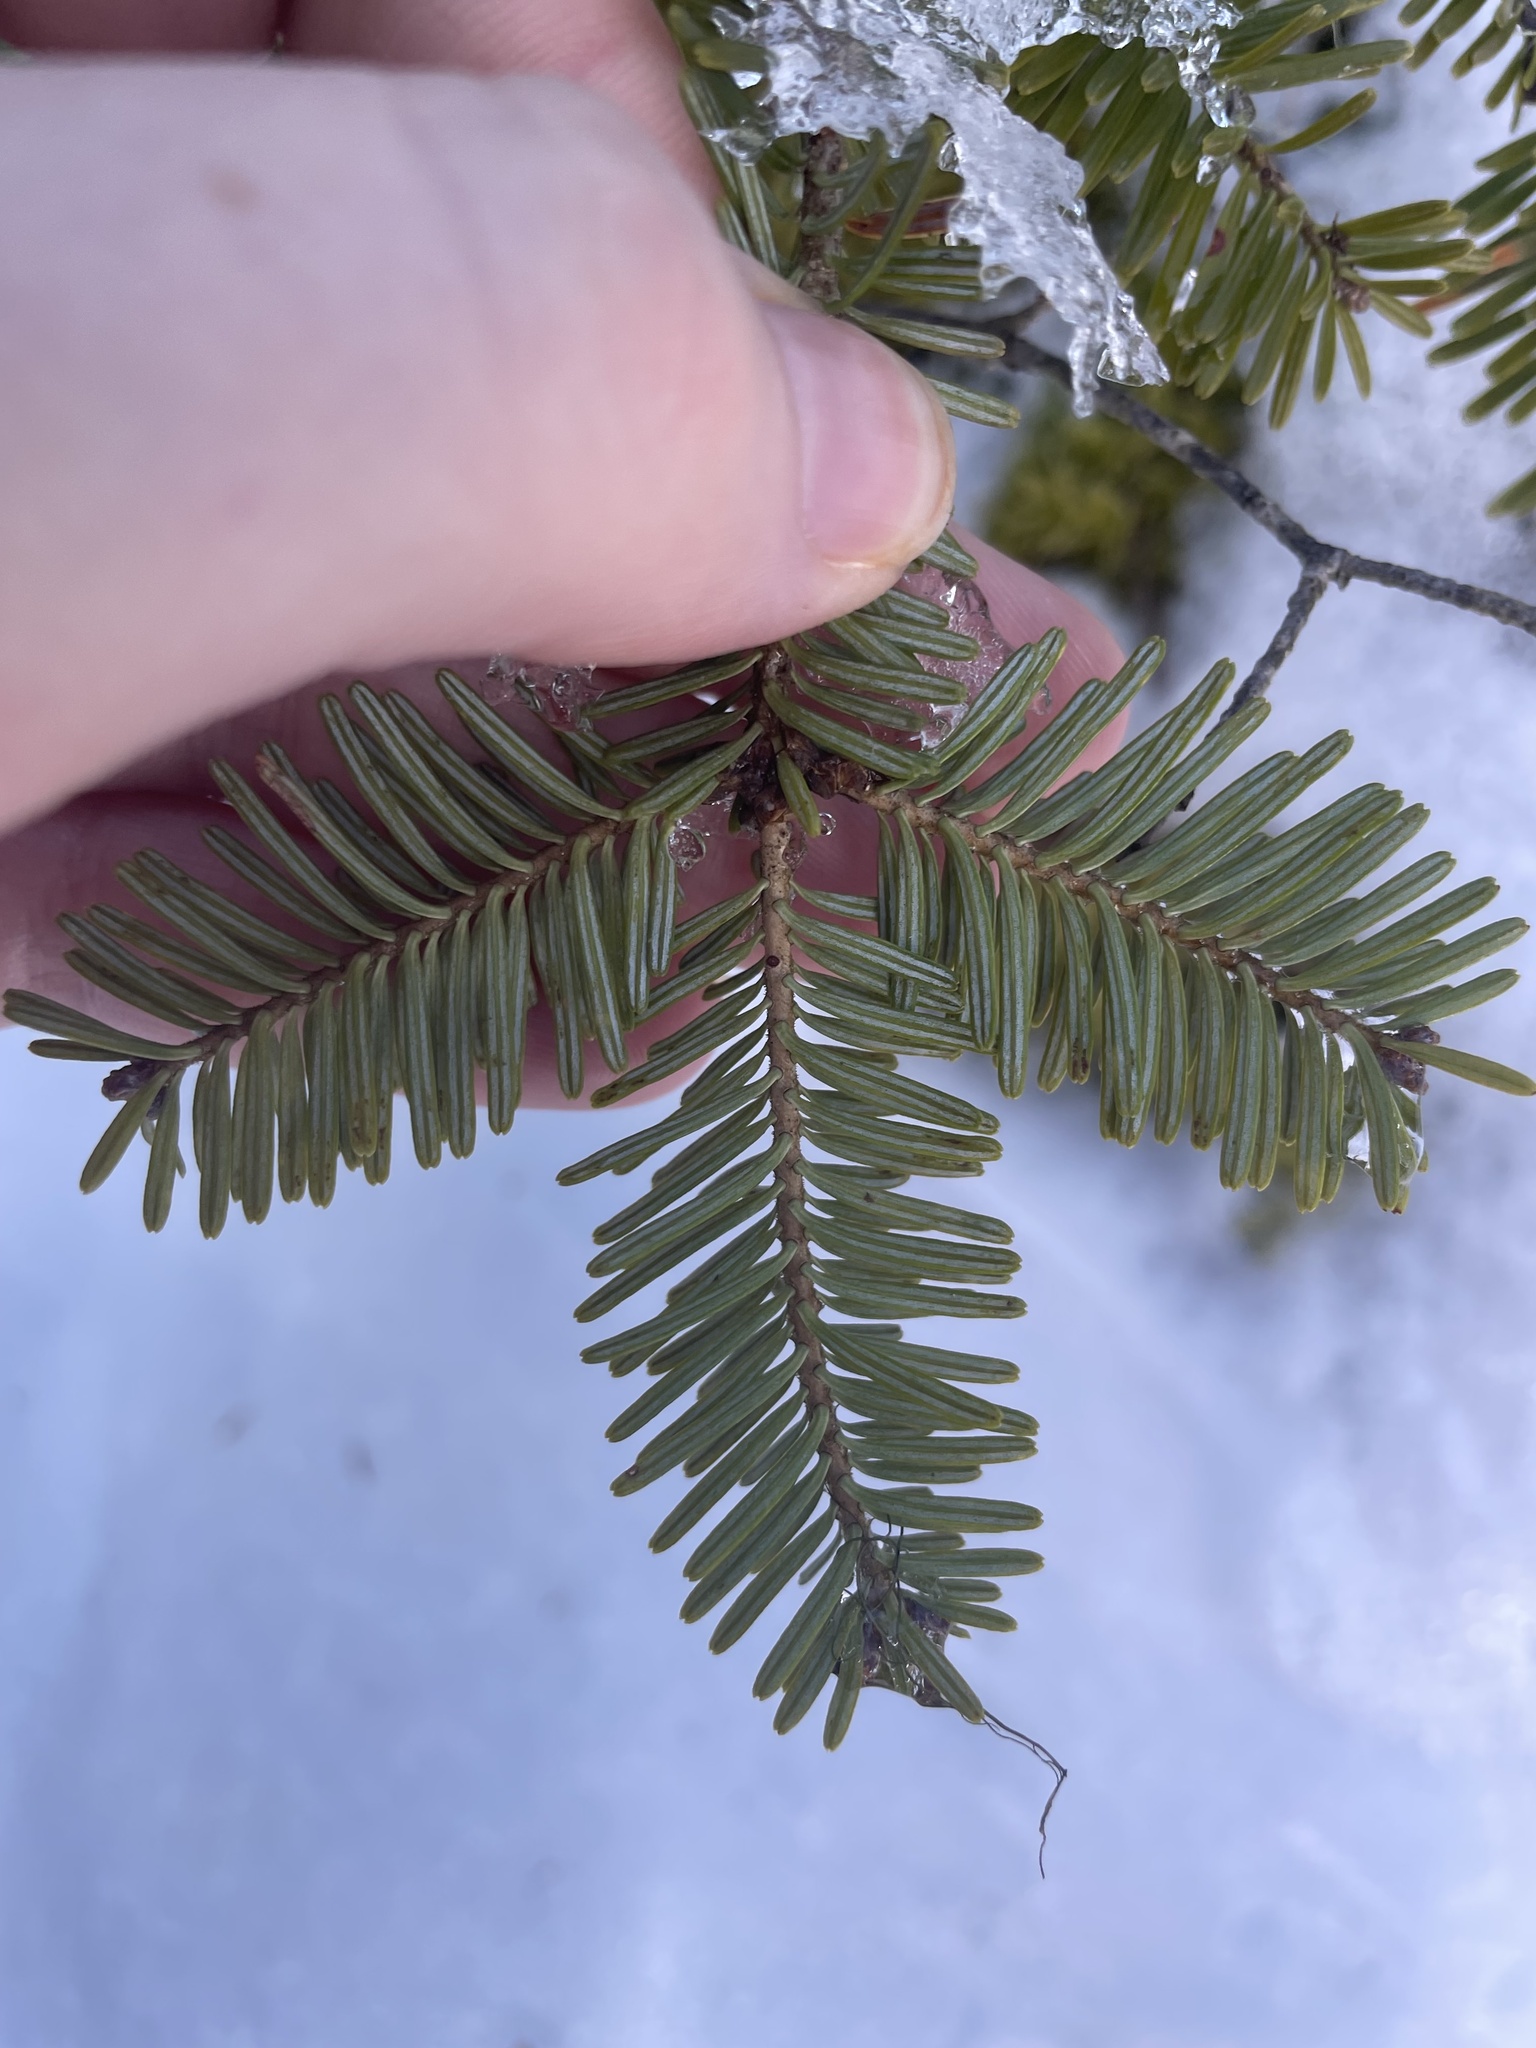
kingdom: Plantae
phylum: Tracheophyta
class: Pinopsida
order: Pinales
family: Pinaceae
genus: Abies
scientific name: Abies balsamea
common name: Balsam fir
